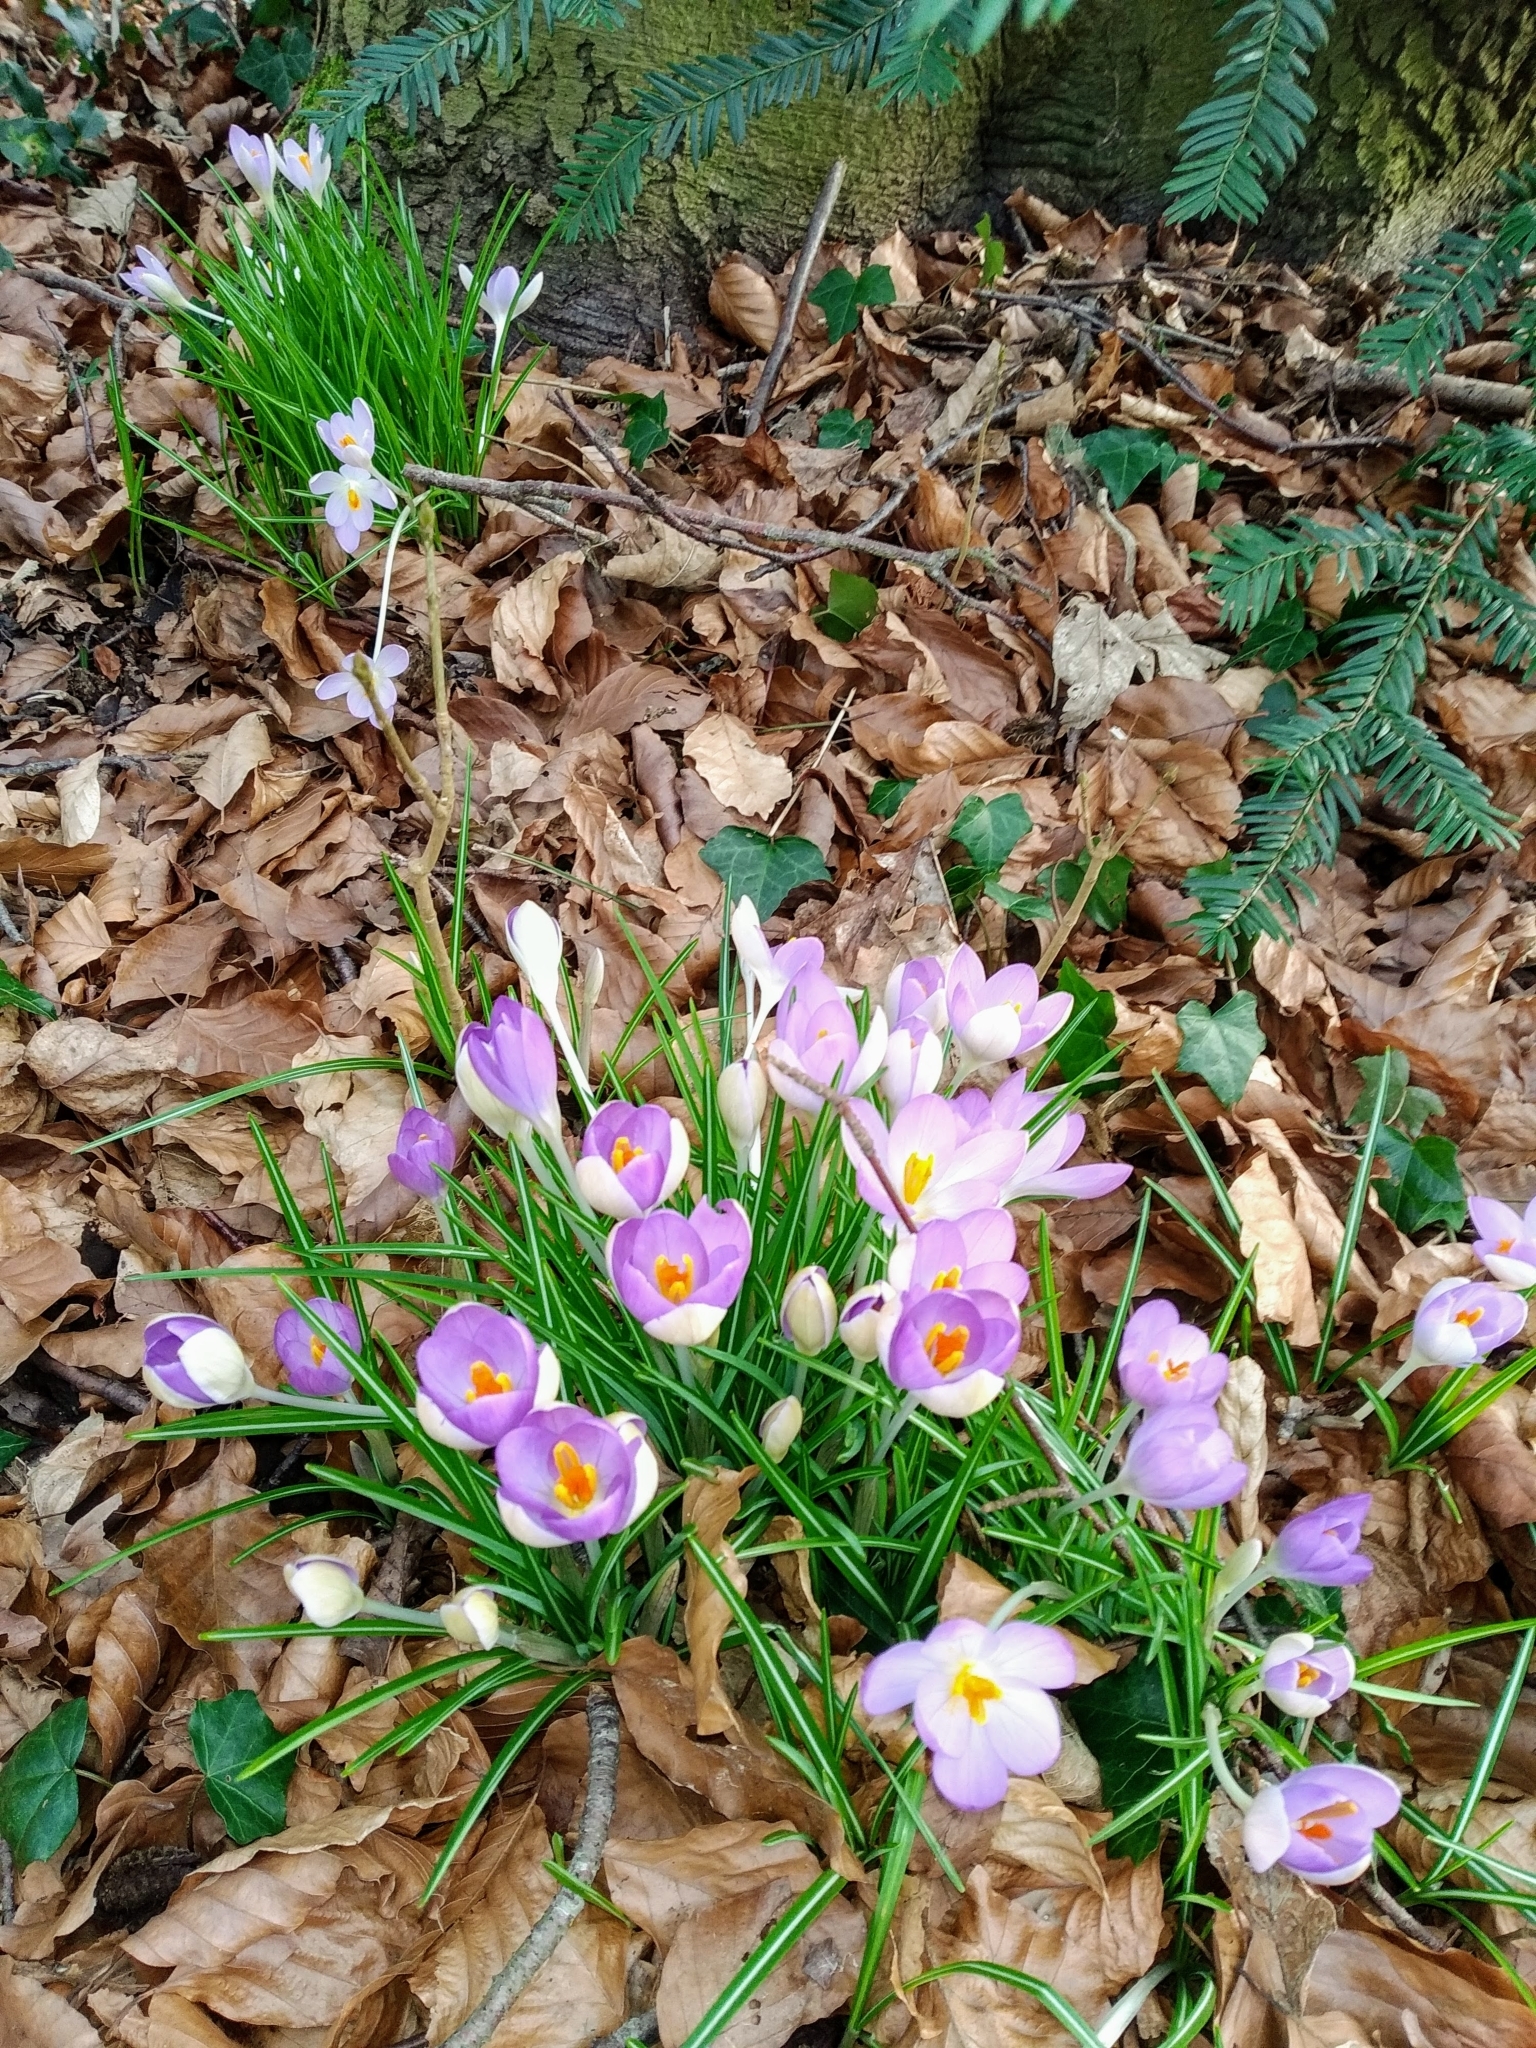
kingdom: Plantae
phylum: Tracheophyta
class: Liliopsida
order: Asparagales
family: Iridaceae
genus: Crocus
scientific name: Crocus tommasinianus
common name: Early crocus
